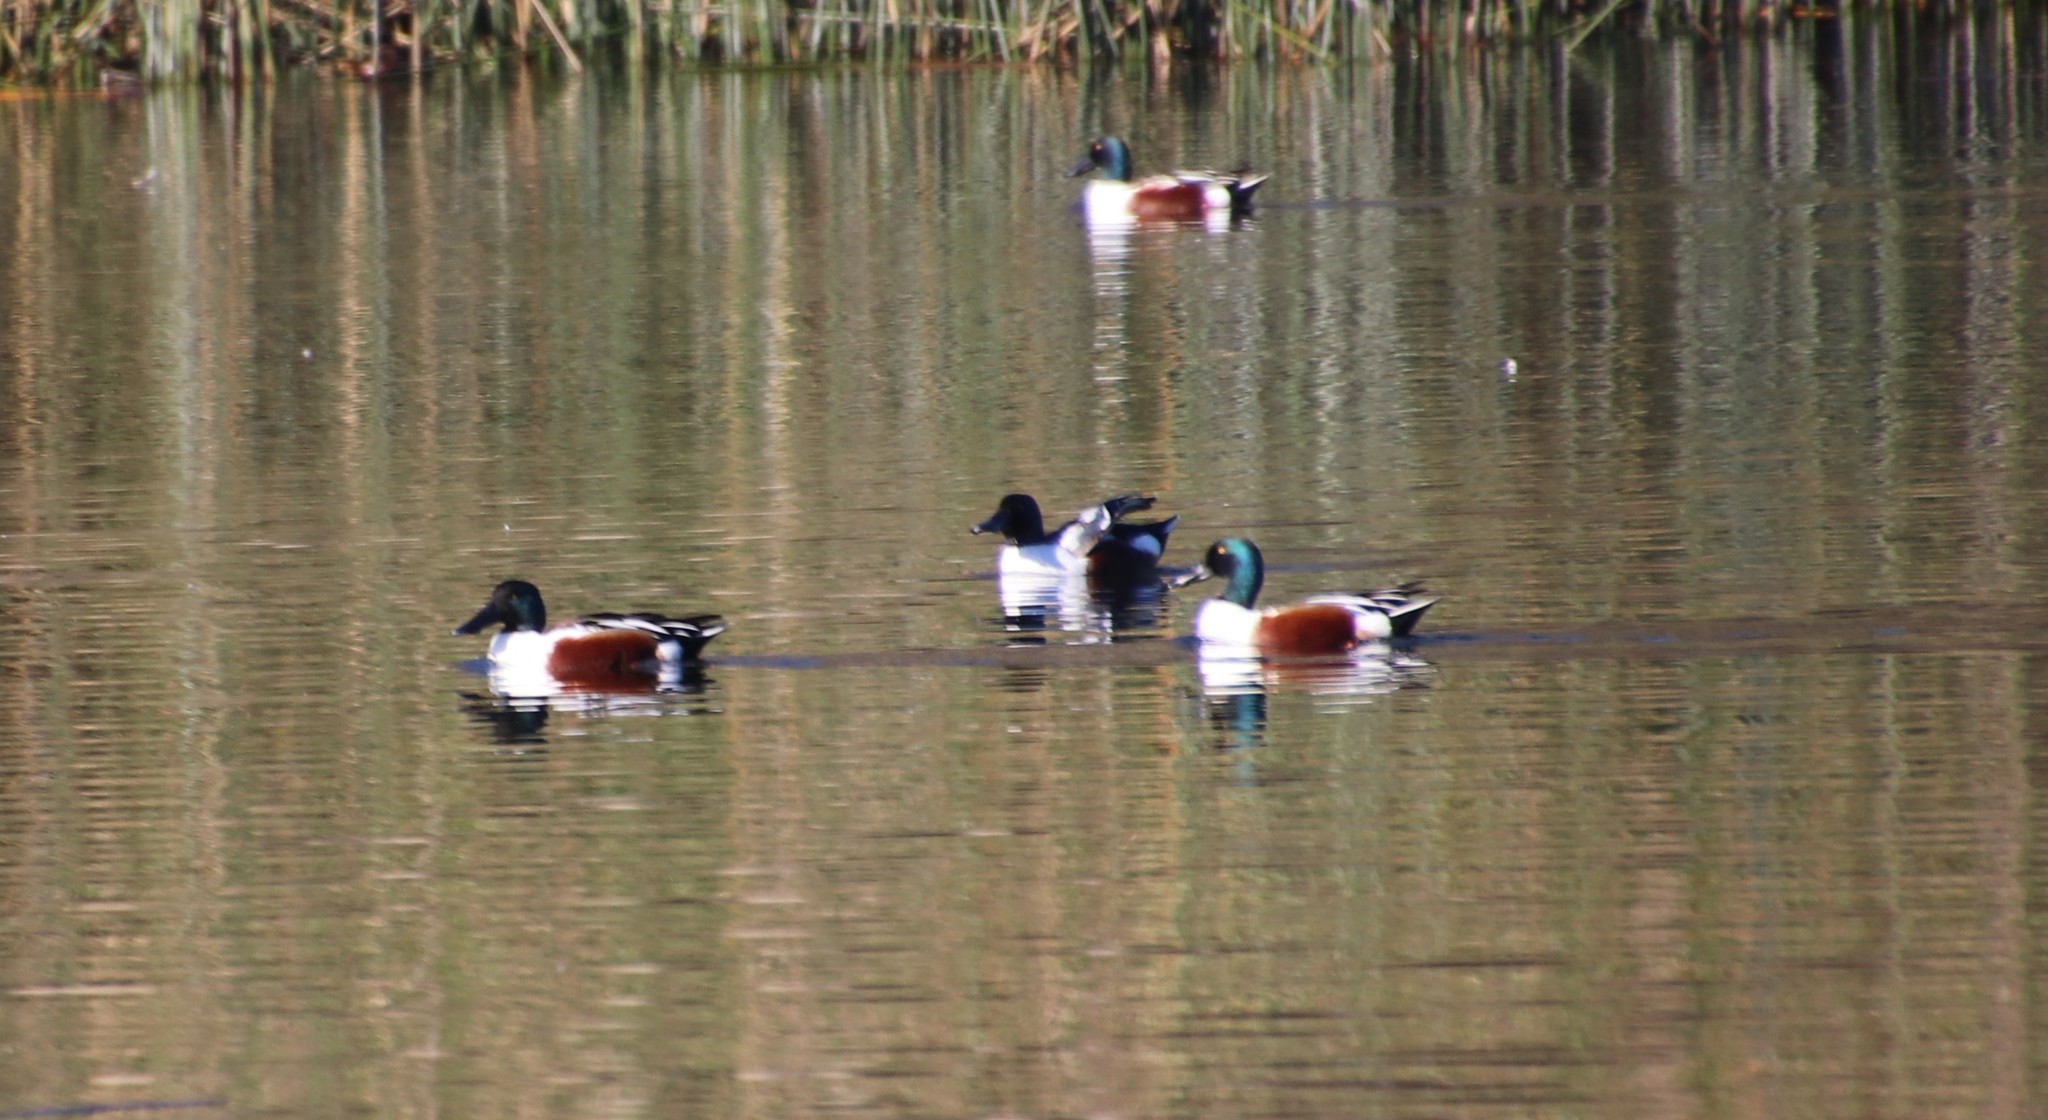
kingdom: Animalia
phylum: Chordata
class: Aves
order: Anseriformes
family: Anatidae
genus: Spatula
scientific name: Spatula clypeata
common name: Northern shoveler
